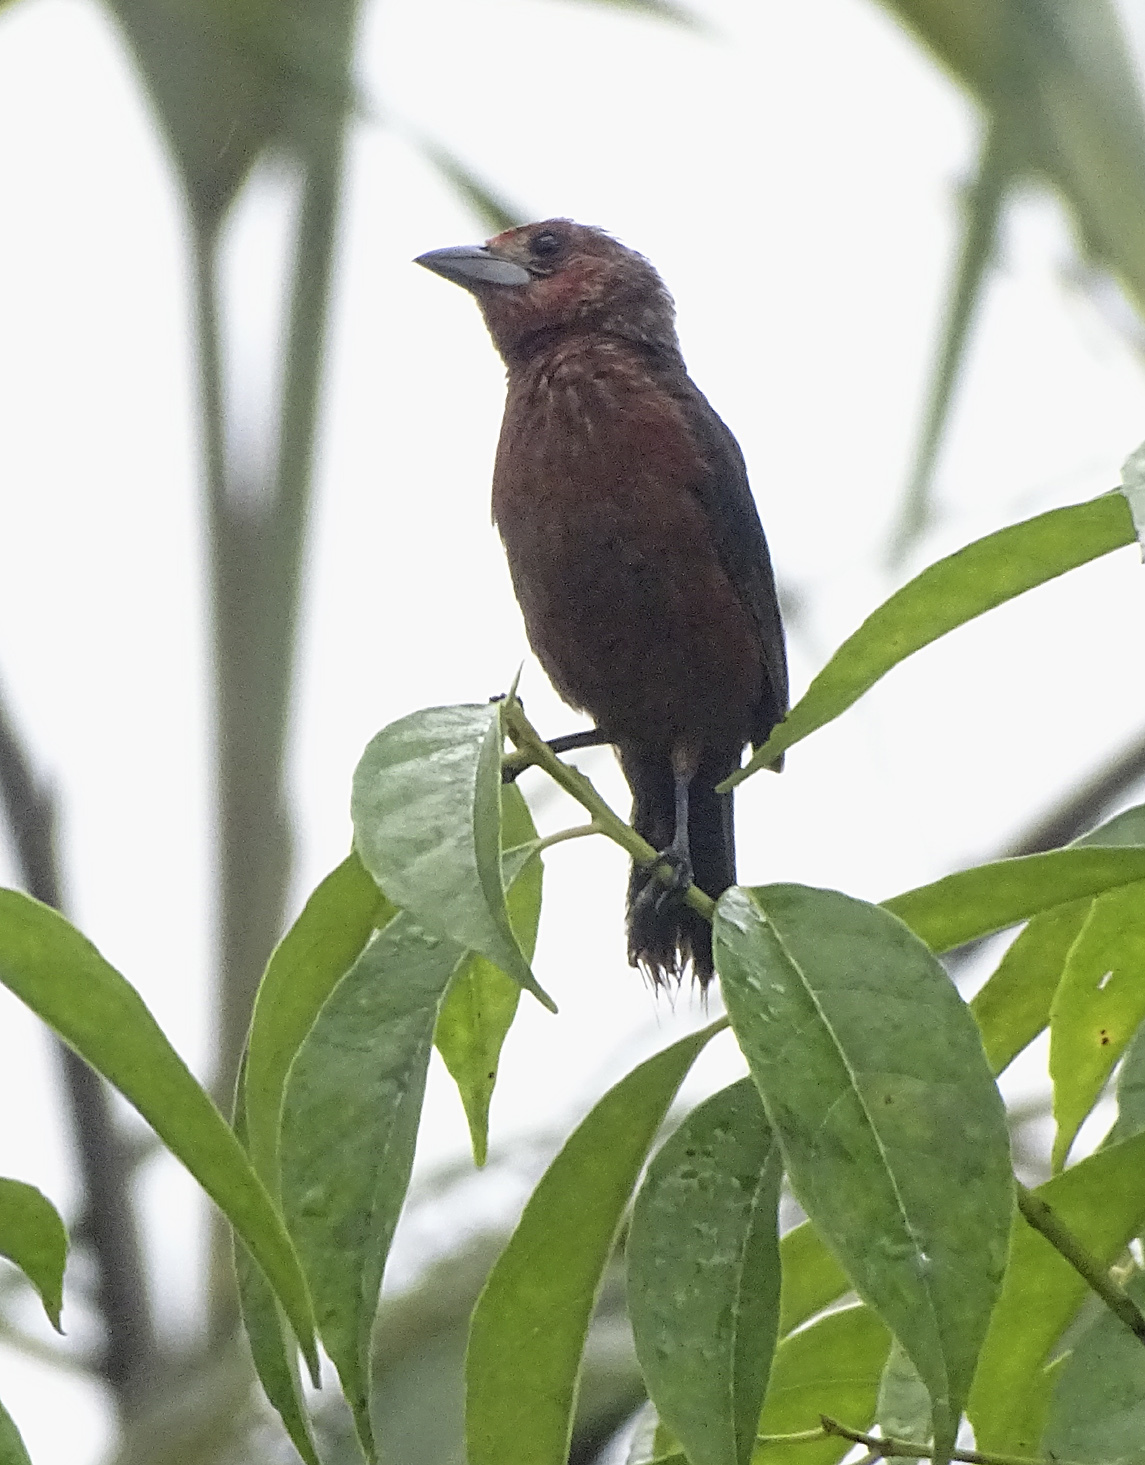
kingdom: Animalia
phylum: Chordata
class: Aves
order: Passeriformes
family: Thraupidae
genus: Ramphocelus
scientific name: Ramphocelus carbo
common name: Silver-beaked tanager
